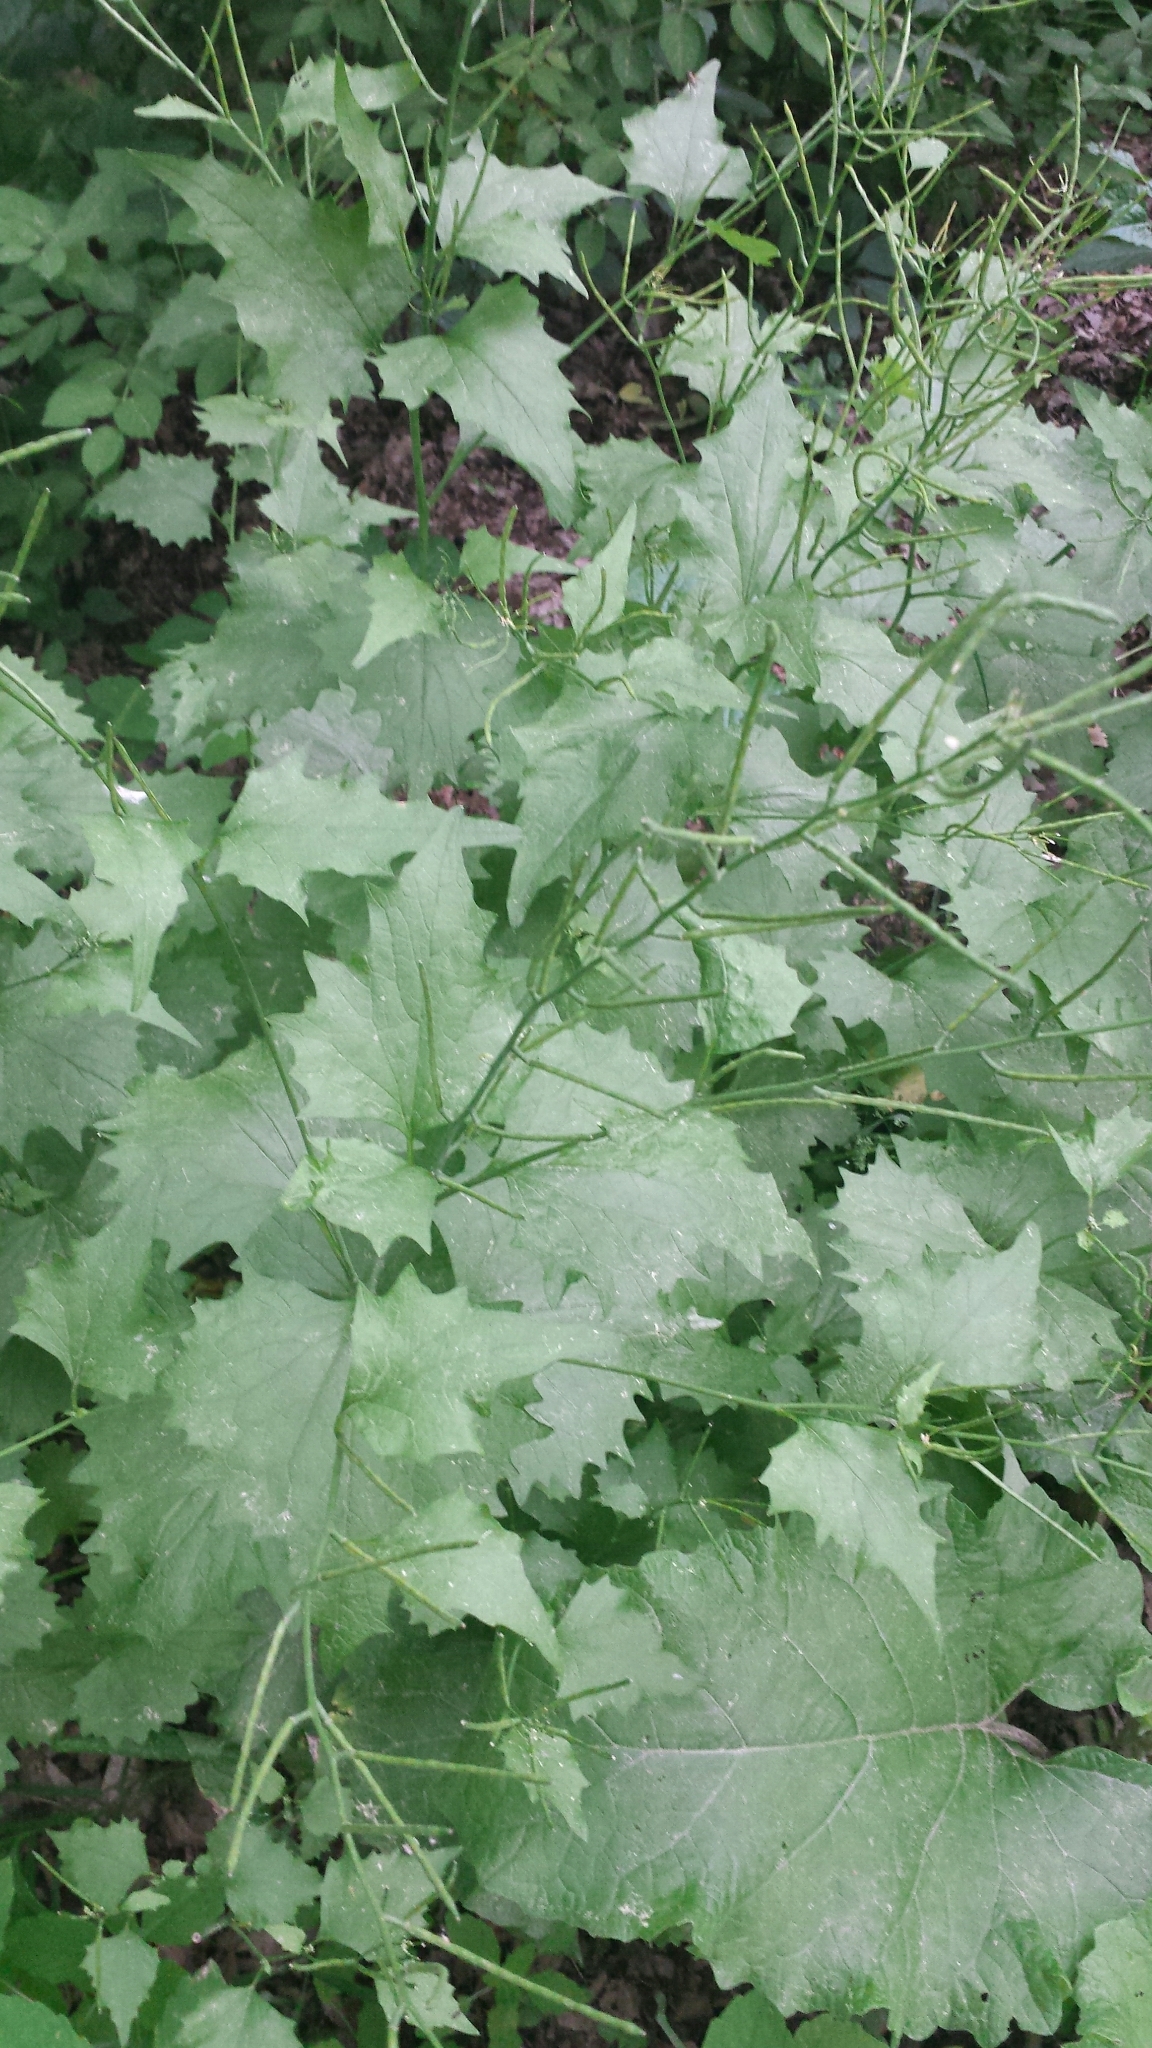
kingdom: Plantae
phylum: Tracheophyta
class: Magnoliopsida
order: Brassicales
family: Brassicaceae
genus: Alliaria
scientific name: Alliaria petiolata
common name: Garlic mustard
